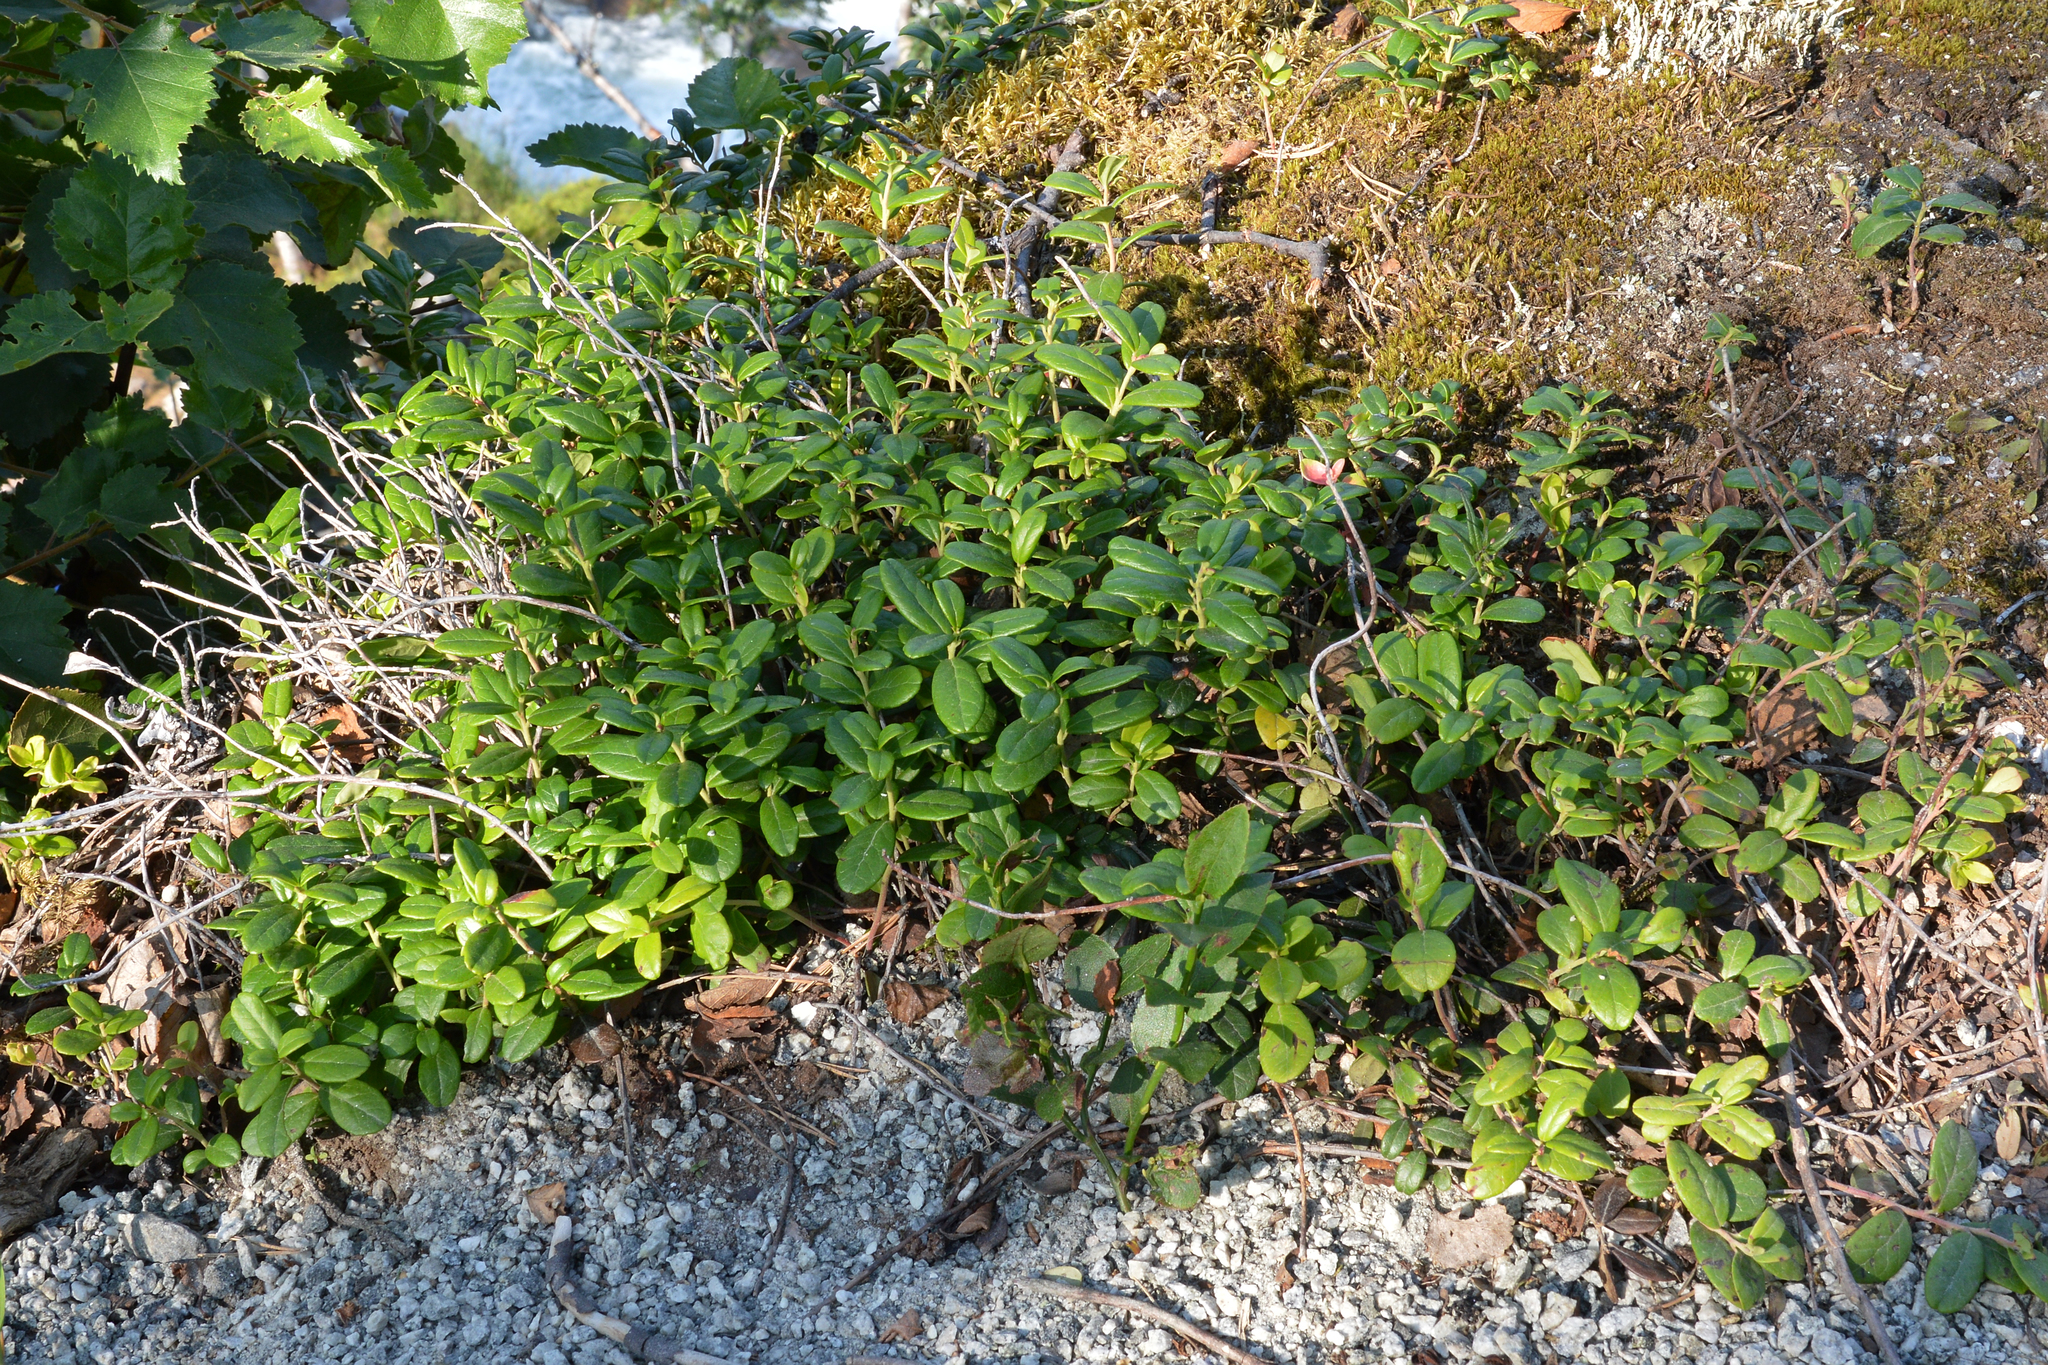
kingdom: Plantae
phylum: Tracheophyta
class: Magnoliopsida
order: Ericales
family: Ericaceae
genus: Vaccinium
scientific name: Vaccinium vitis-idaea
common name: Cowberry
